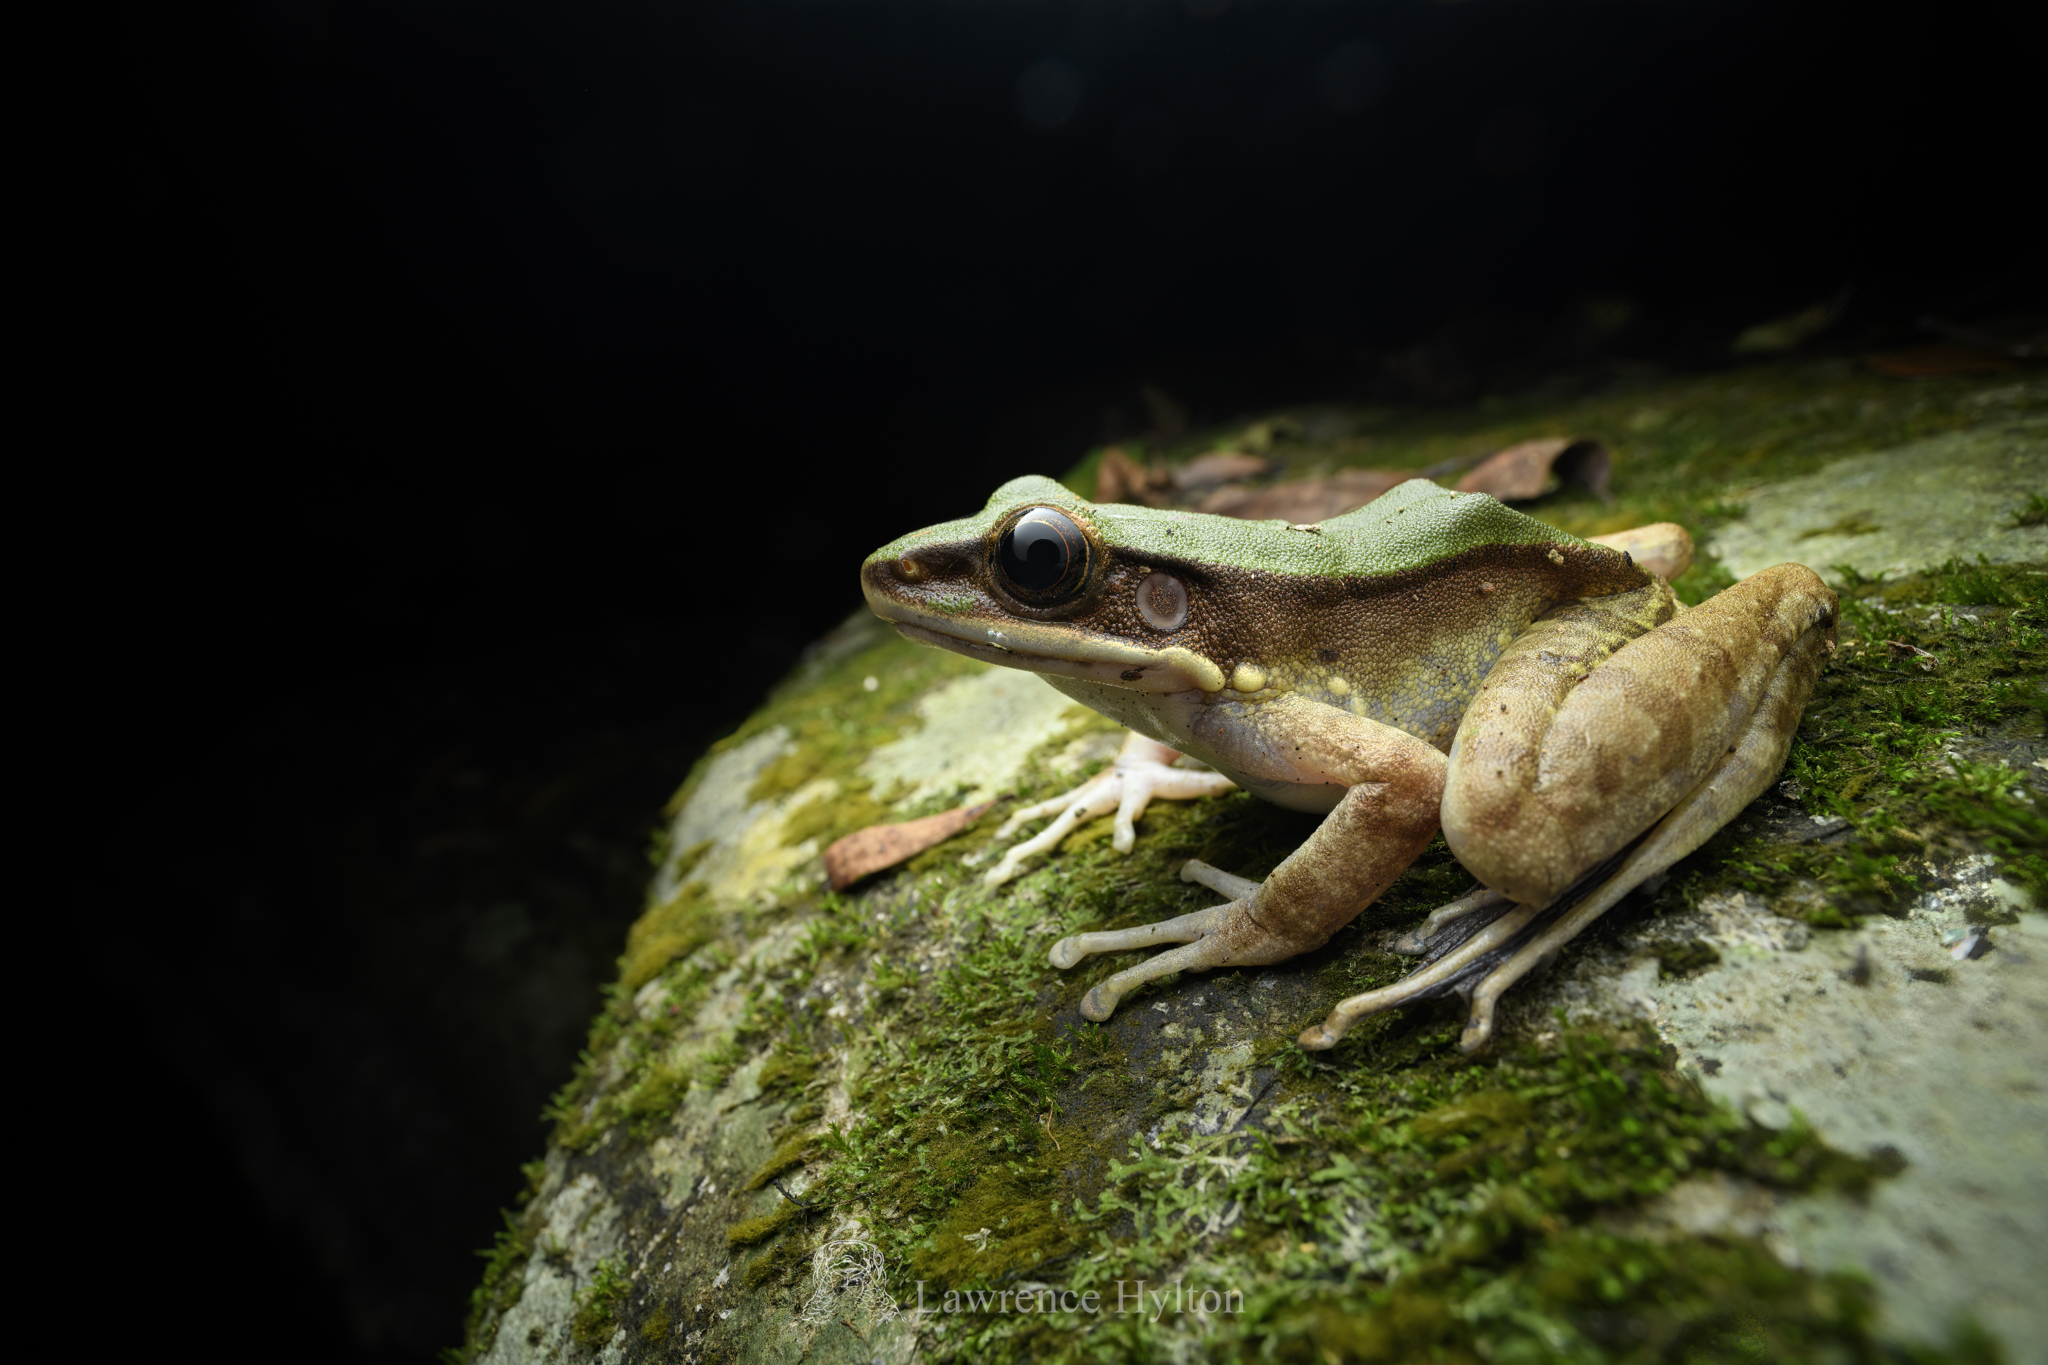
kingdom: Animalia
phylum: Chordata
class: Amphibia
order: Anura
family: Ranidae
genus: Odorrana
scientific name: Odorrana graminea
